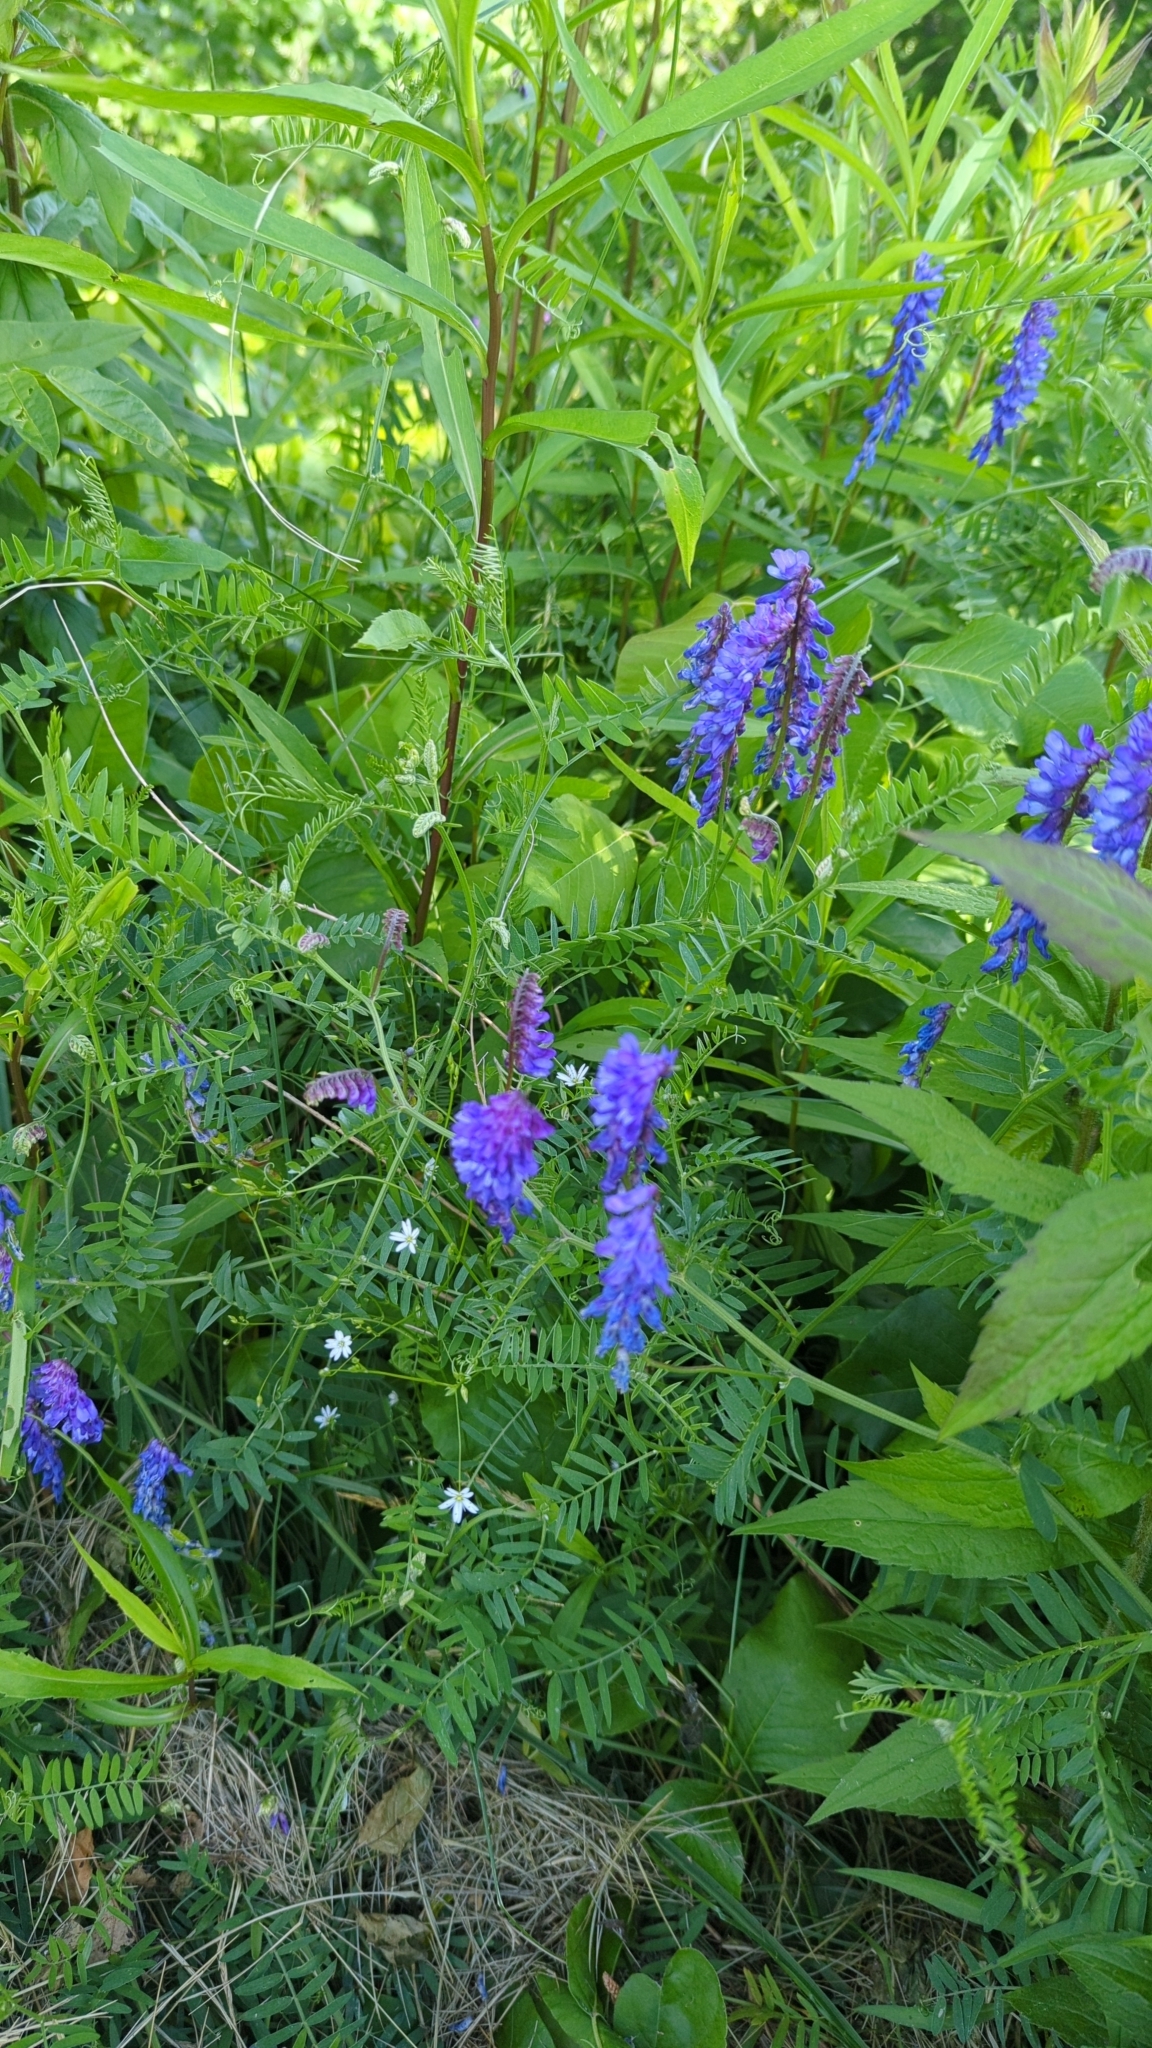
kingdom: Plantae
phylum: Tracheophyta
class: Magnoliopsida
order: Fabales
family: Fabaceae
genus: Vicia
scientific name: Vicia cracca
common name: Bird vetch
